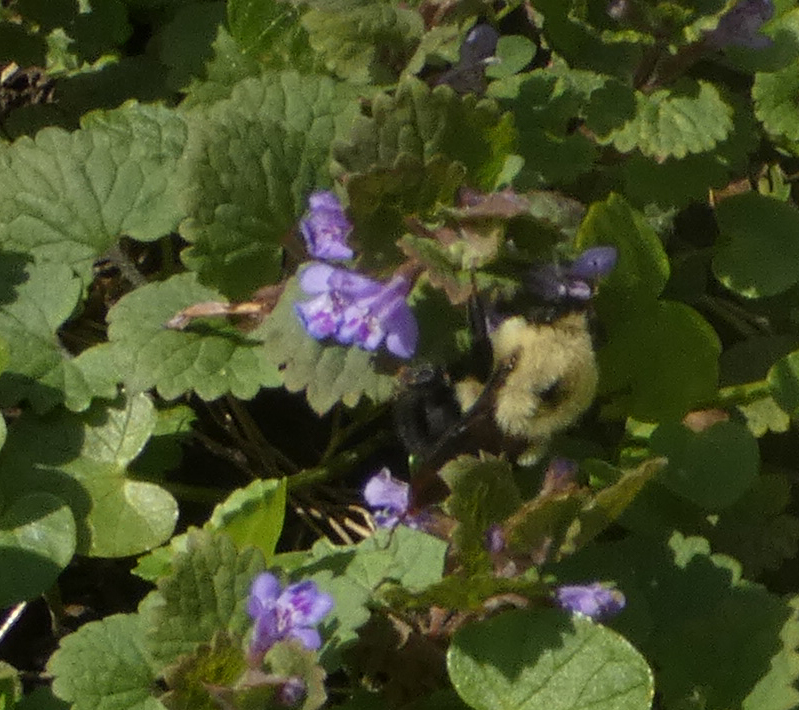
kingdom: Animalia
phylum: Arthropoda
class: Insecta
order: Hymenoptera
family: Apidae
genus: Bombus
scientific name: Bombus bimaculatus
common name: Two-spotted bumble bee
